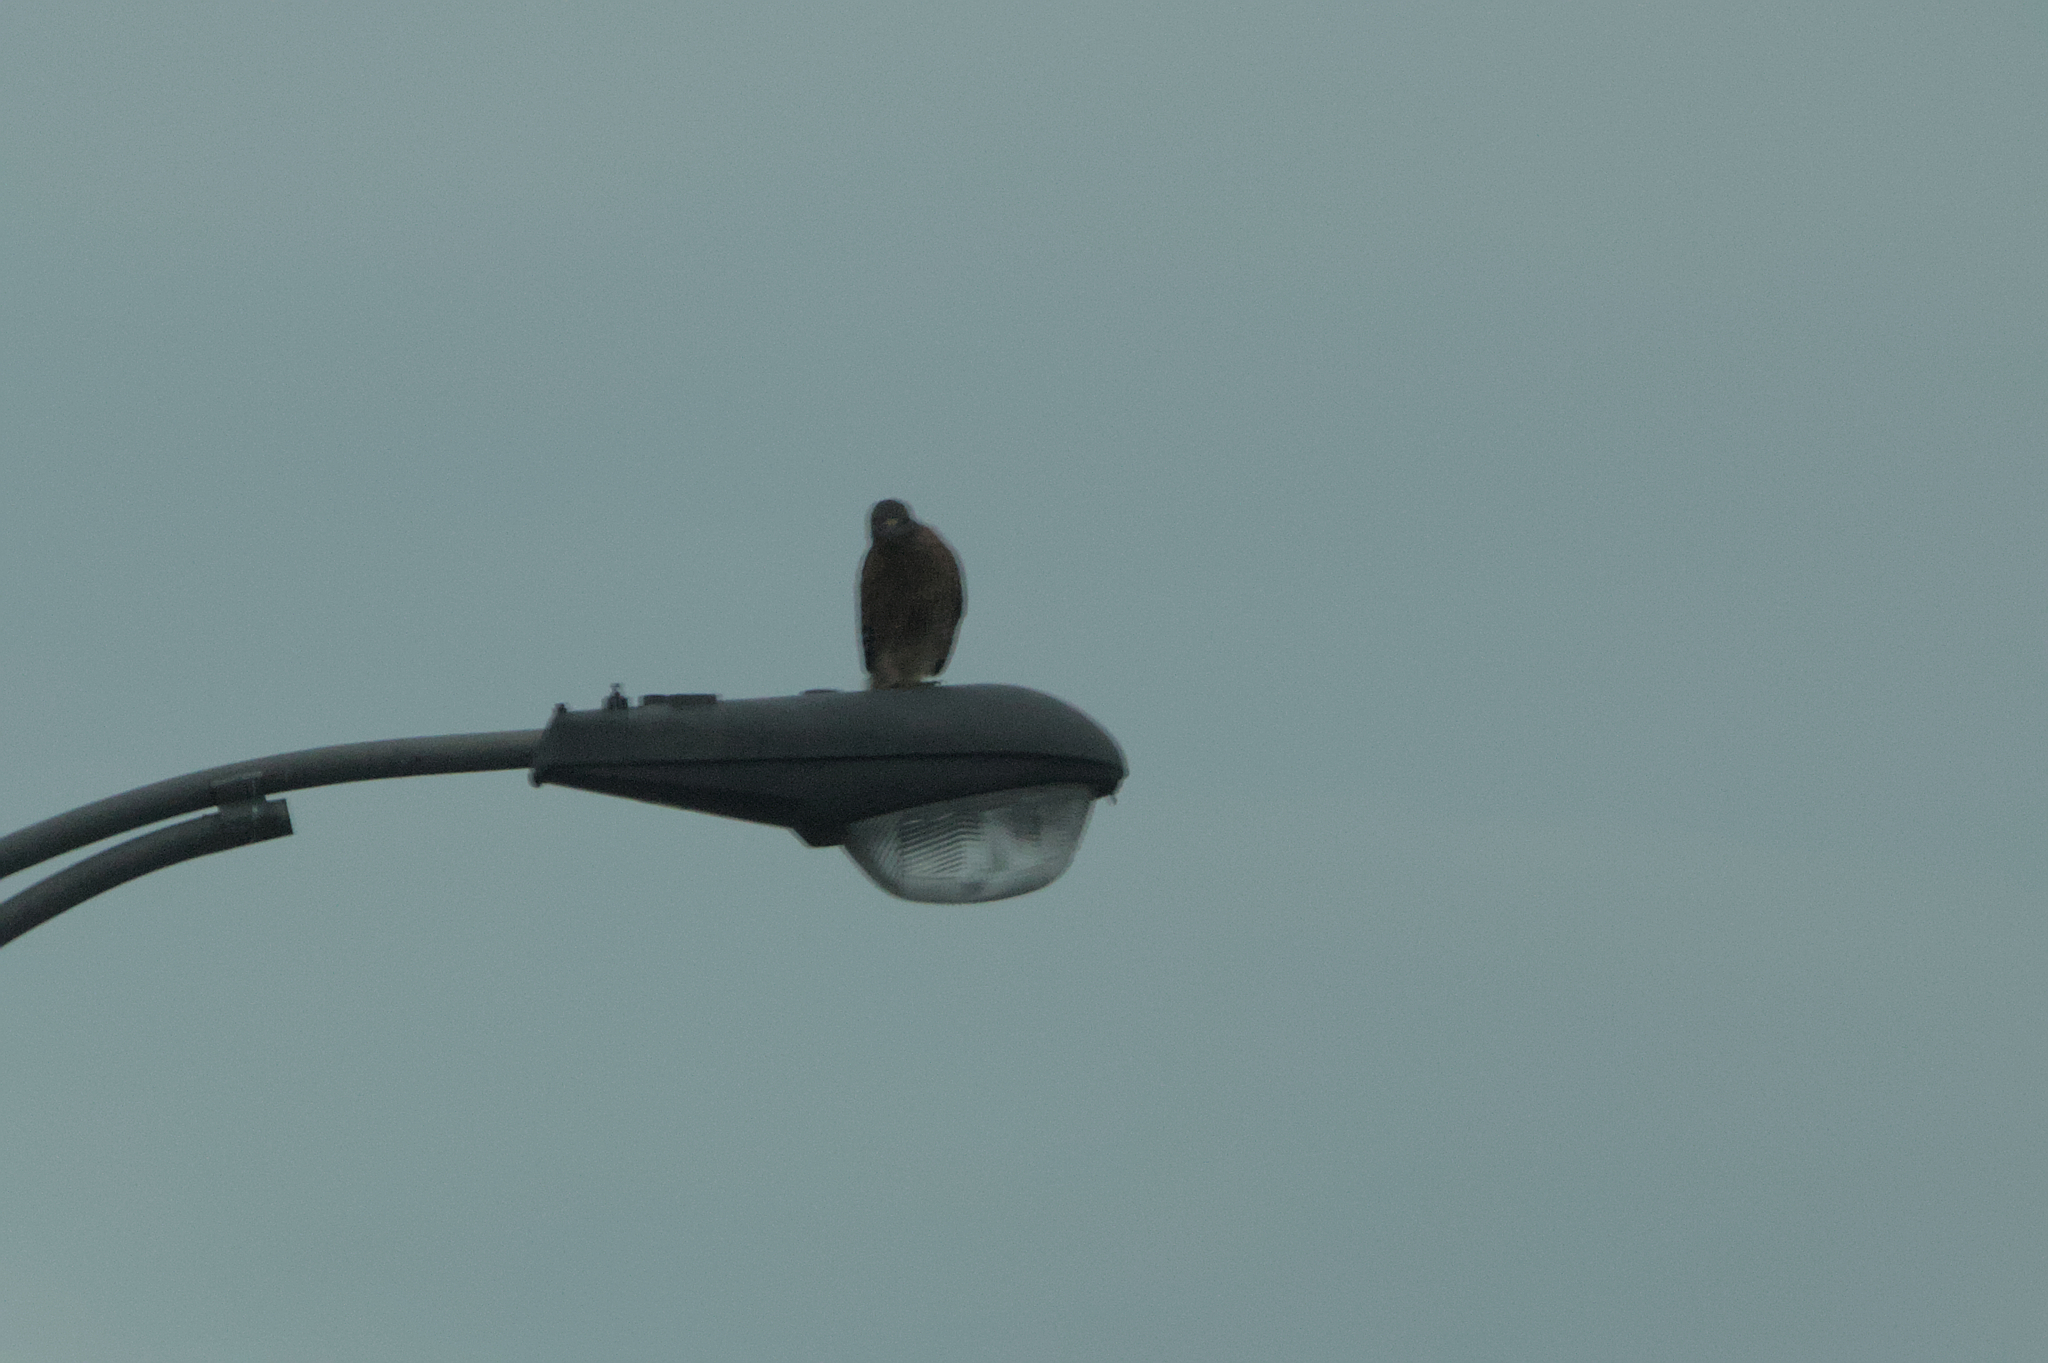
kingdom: Animalia
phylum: Chordata
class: Aves
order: Columbiformes
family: Columbidae
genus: Columba
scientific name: Columba livia
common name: Rock pigeon
